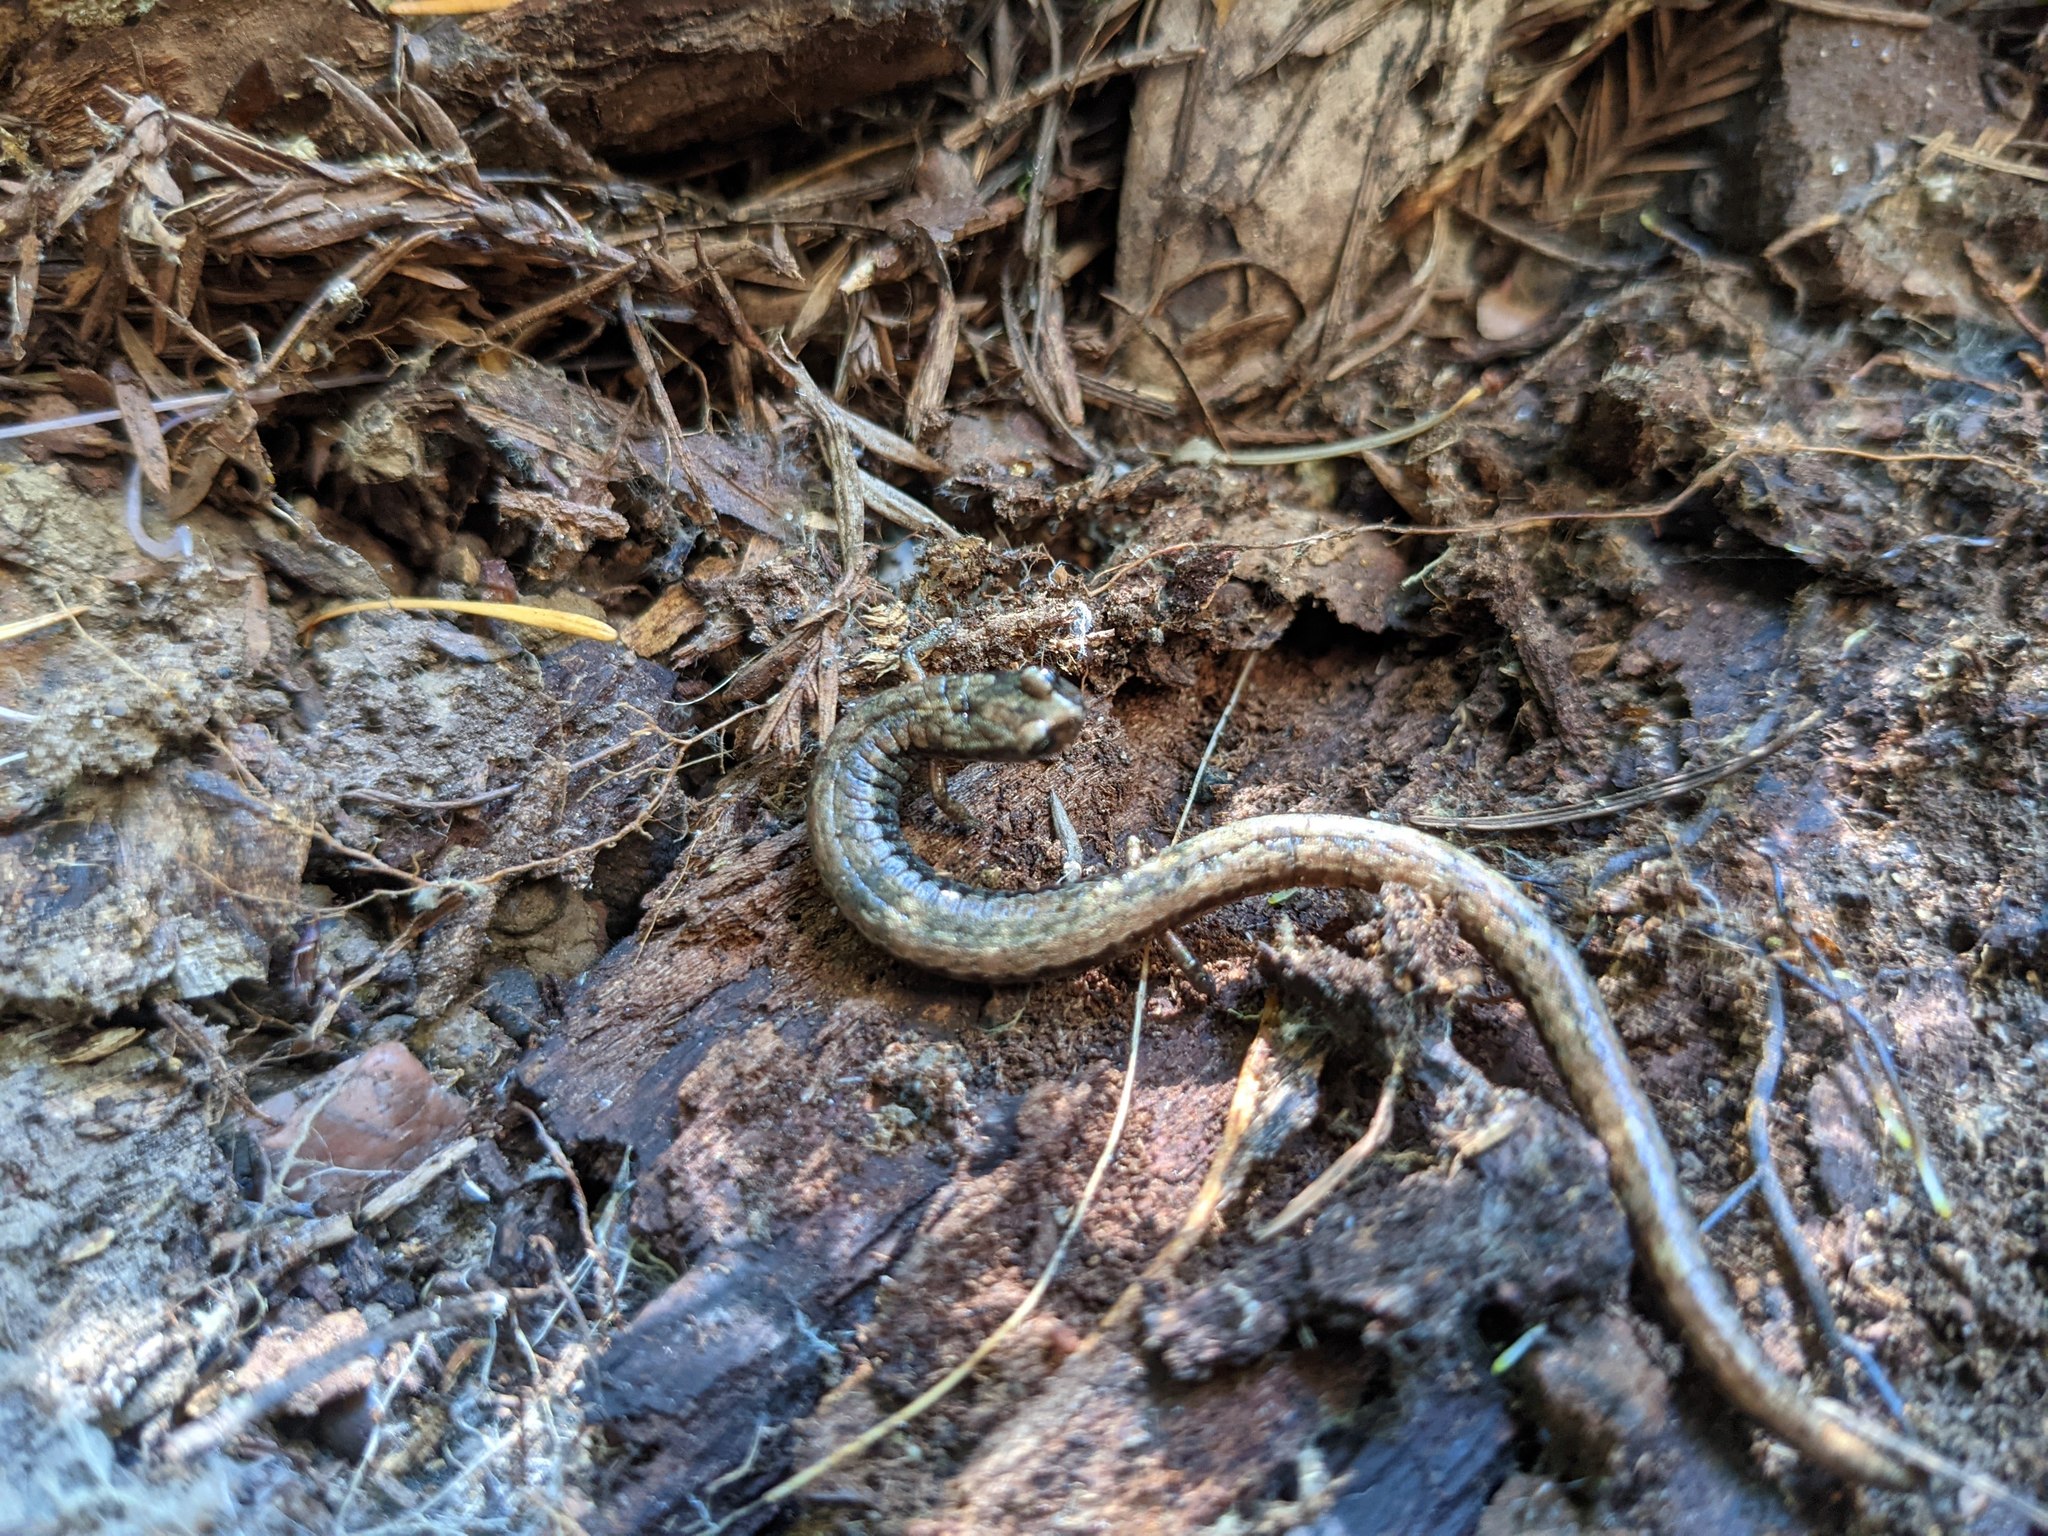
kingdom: Animalia
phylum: Chordata
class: Amphibia
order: Caudata
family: Plethodontidae
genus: Batrachoseps
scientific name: Batrachoseps attenuatus
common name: California slender salamander
